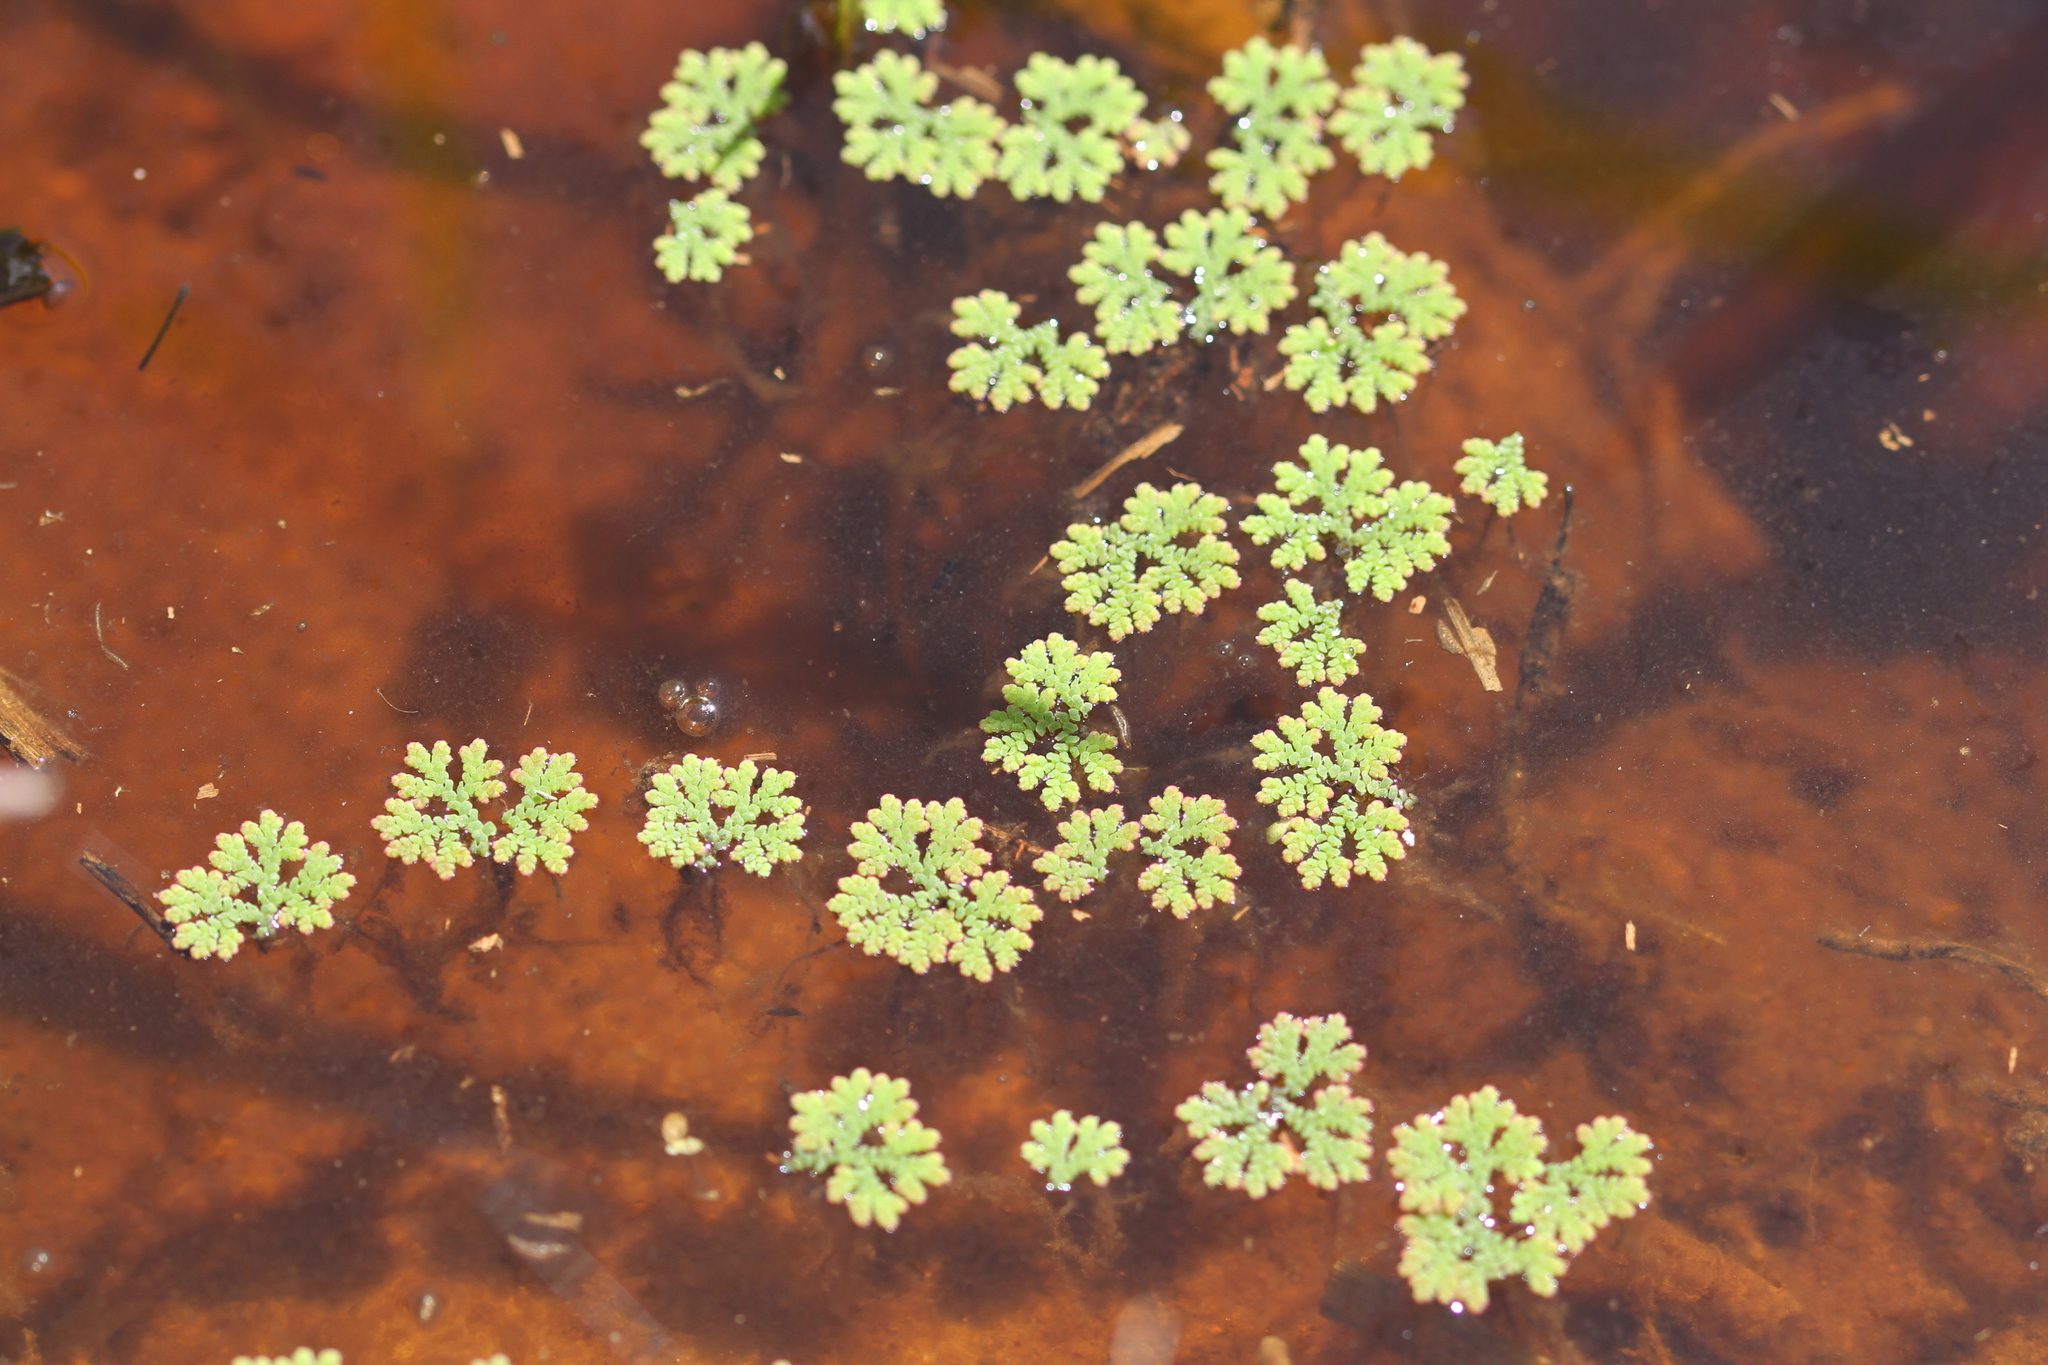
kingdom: Plantae
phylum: Tracheophyta
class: Polypodiopsida
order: Salviniales
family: Salviniaceae
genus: Azolla
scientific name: Azolla cristata
